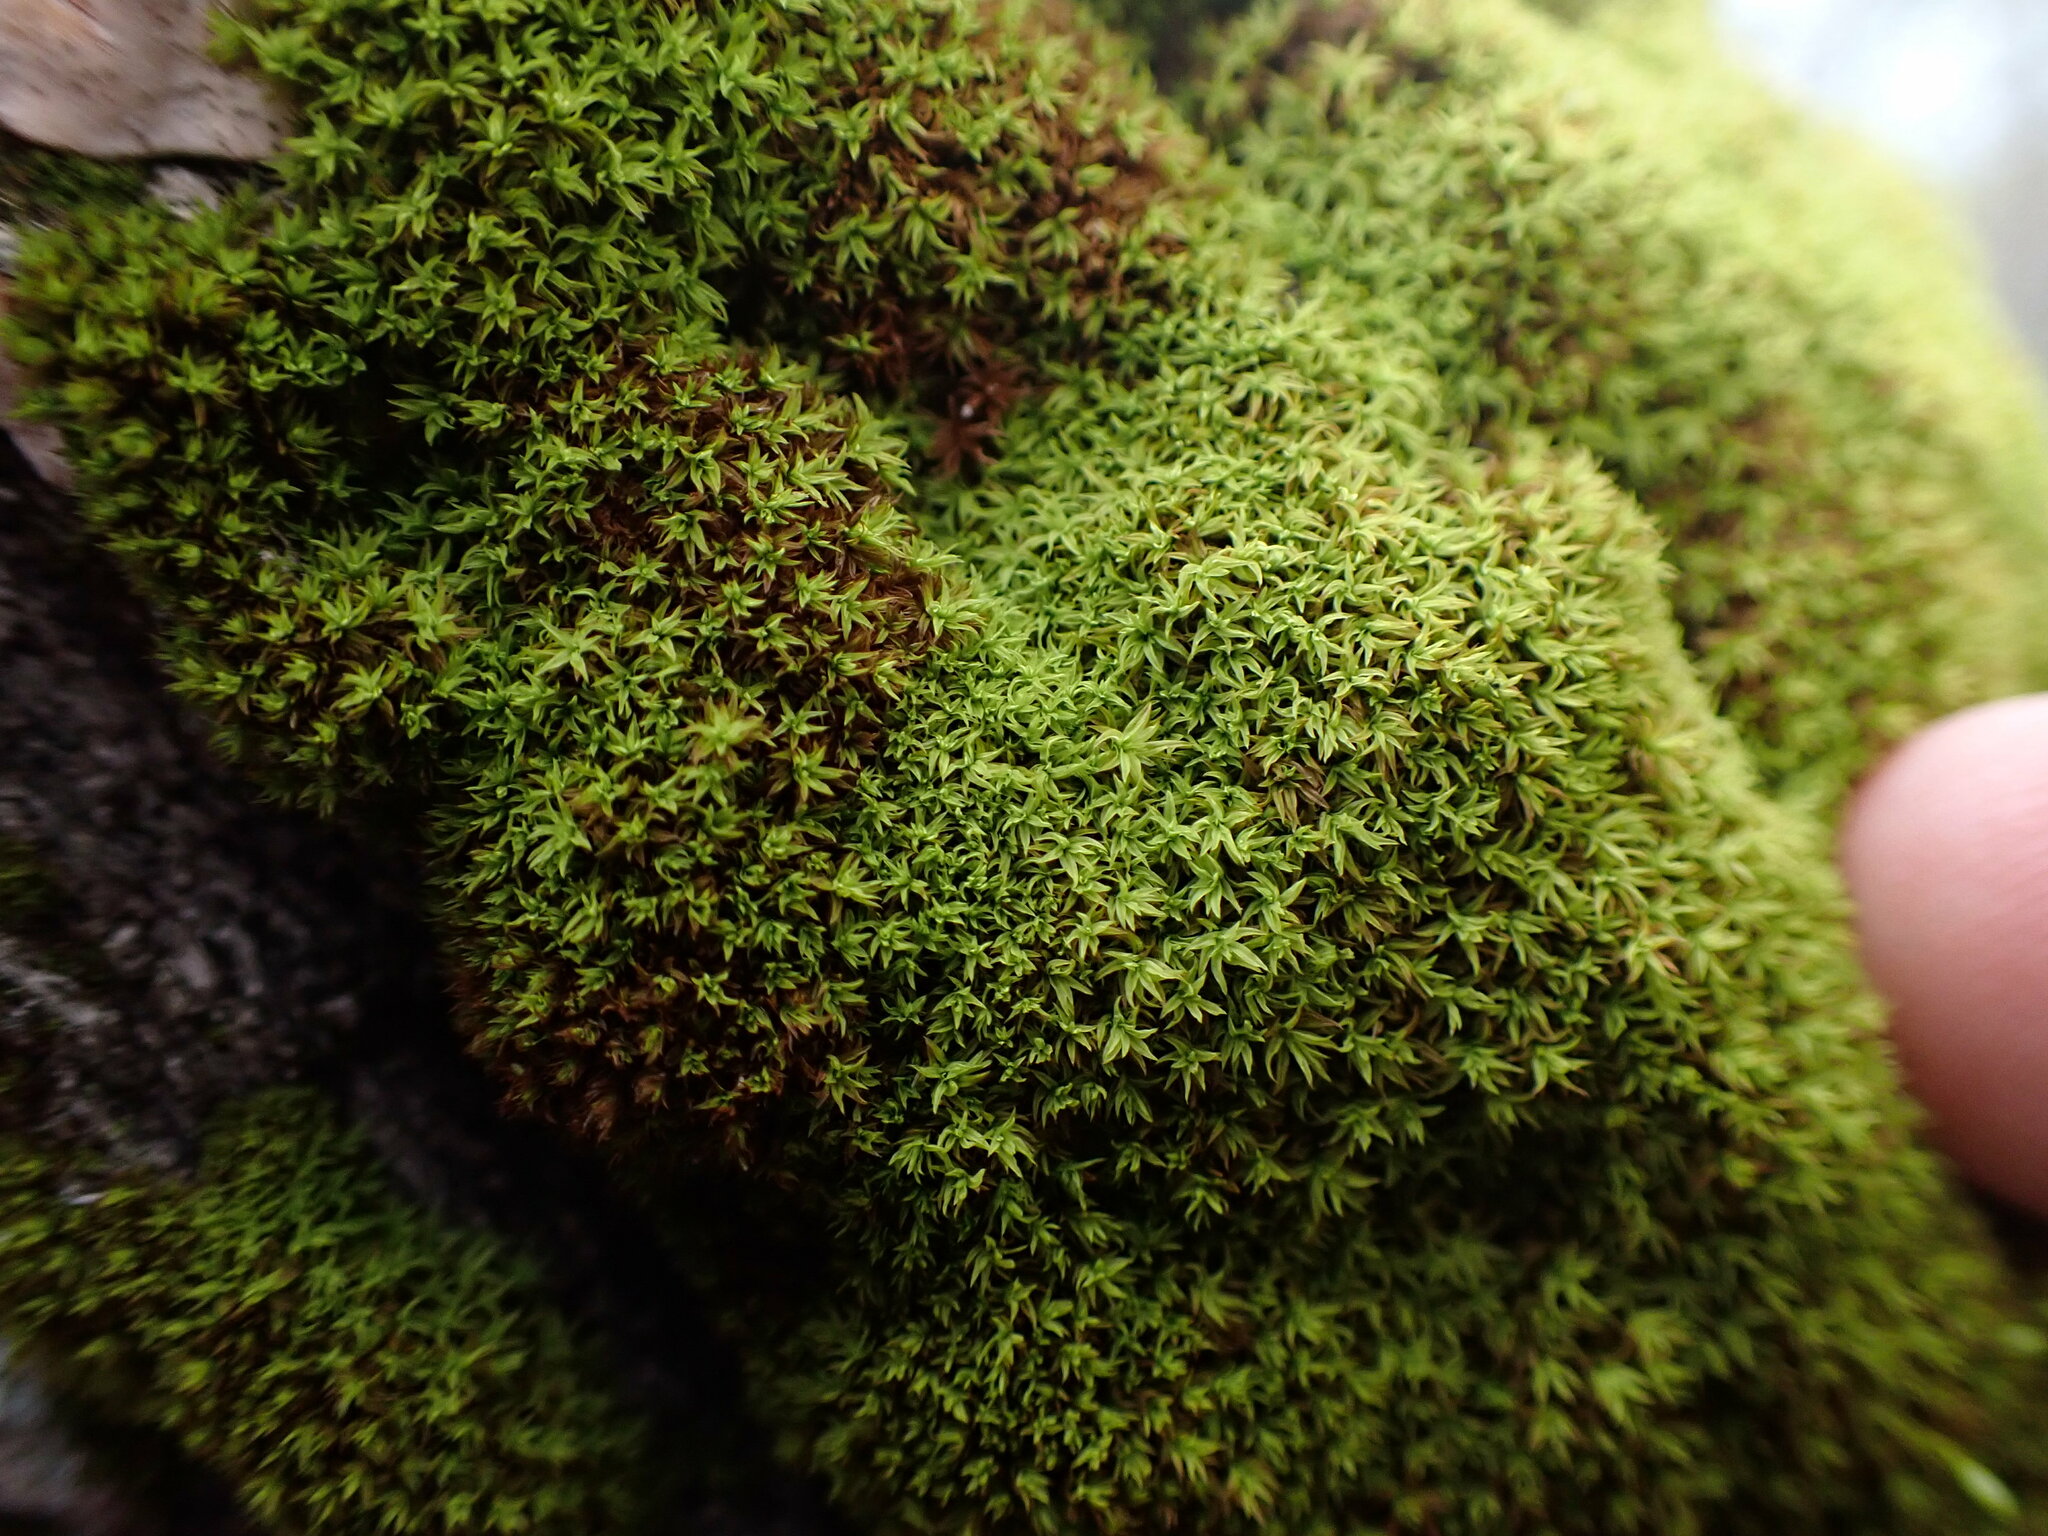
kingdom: Plantae
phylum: Bryophyta
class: Bryopsida
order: Orthotrichales
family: Orthotrichaceae
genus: Zygodon
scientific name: Zygodon rupestris
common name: Park yoke moss
